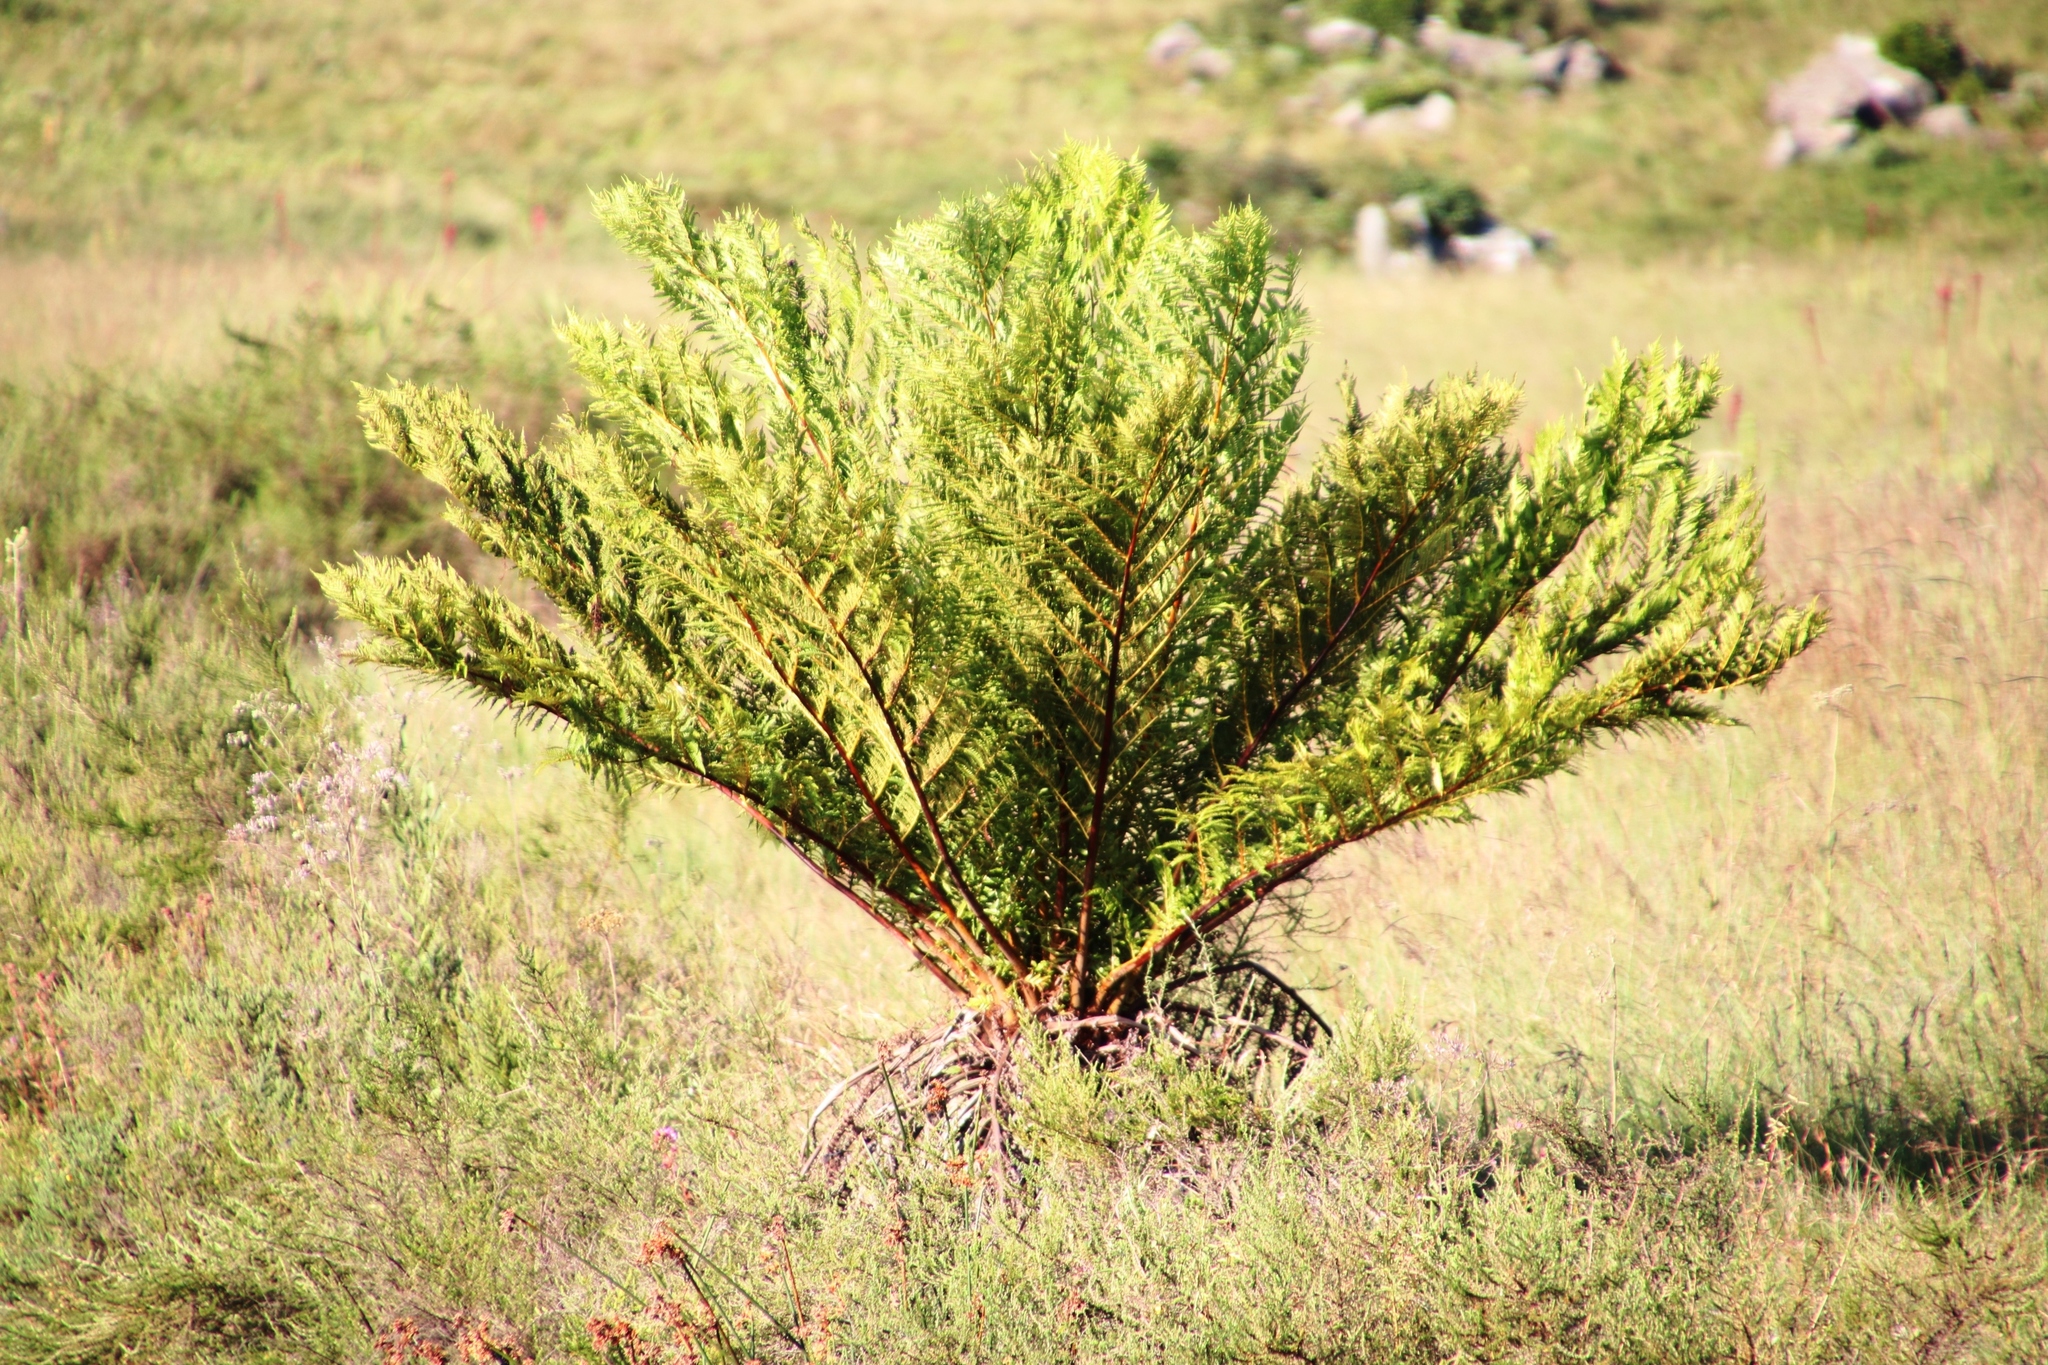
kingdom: Plantae
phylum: Tracheophyta
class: Polypodiopsida
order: Cyatheales
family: Cyatheaceae
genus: Alsophila
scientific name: Alsophila dregei
